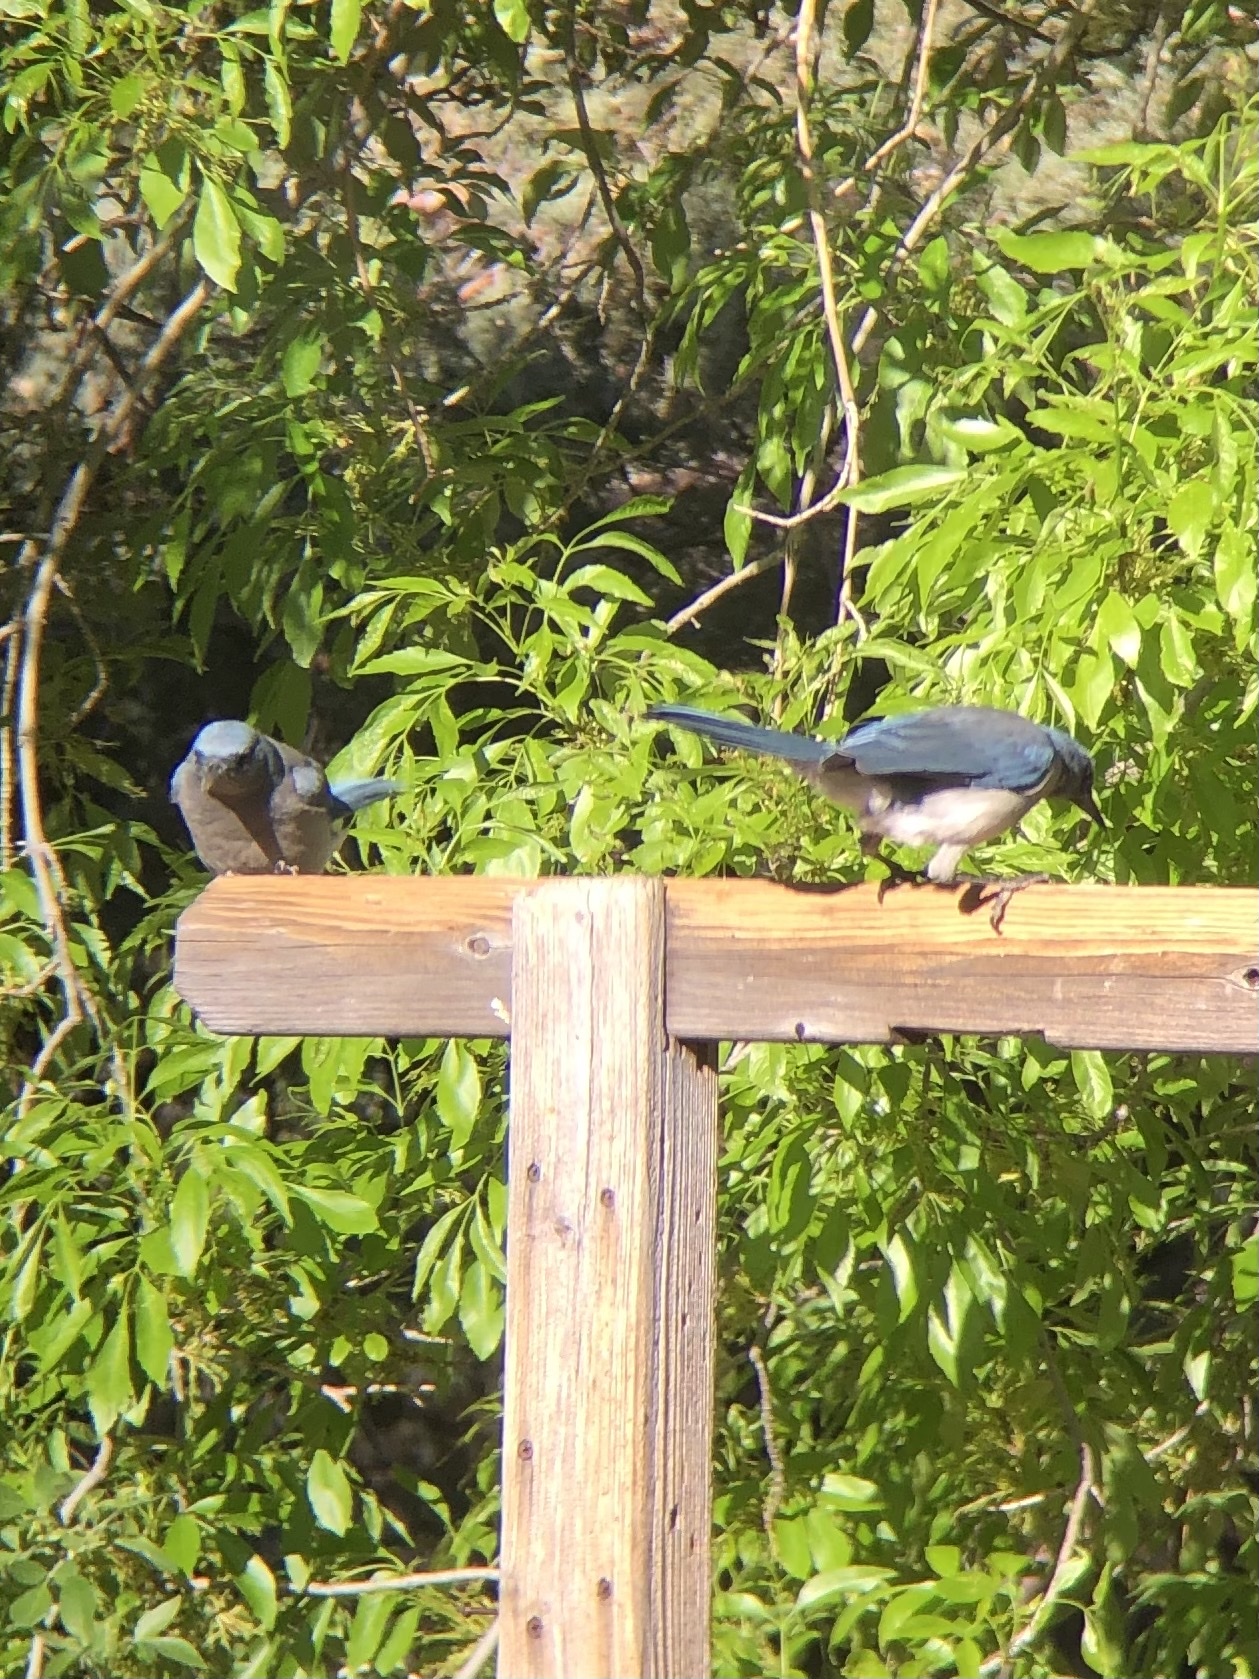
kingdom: Animalia
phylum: Chordata
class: Aves
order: Passeriformes
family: Corvidae
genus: Aphelocoma
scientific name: Aphelocoma wollweberi
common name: Mexican jay
